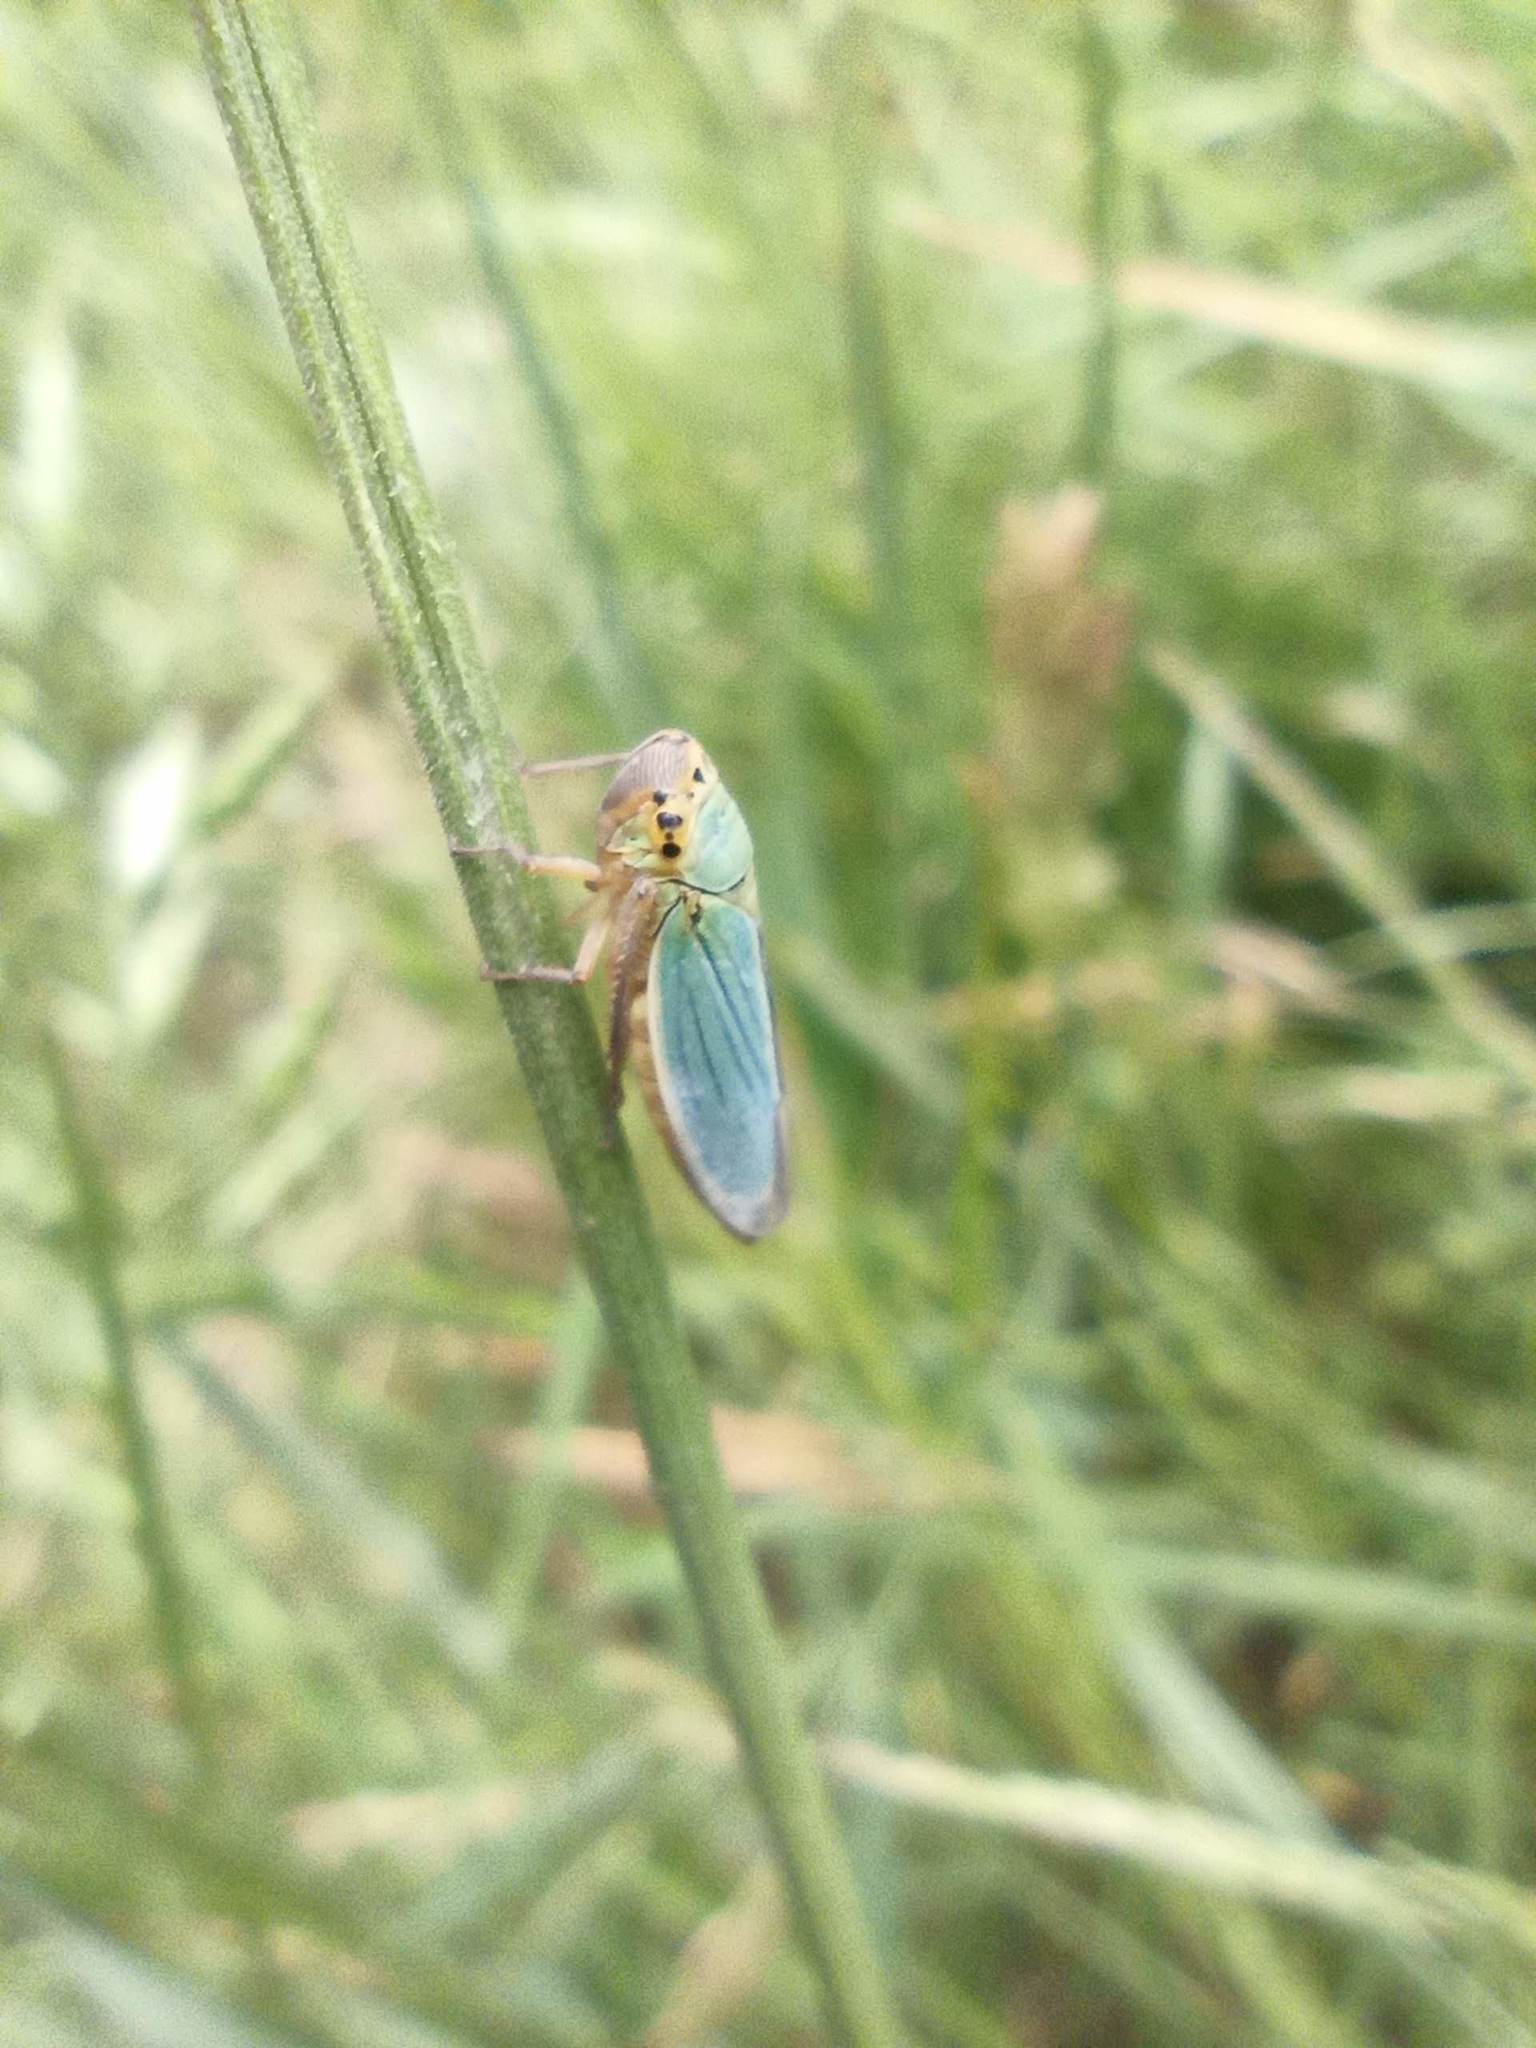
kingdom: Animalia
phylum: Arthropoda
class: Insecta
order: Hemiptera
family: Cicadellidae
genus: Cicadella
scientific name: Cicadella viridis
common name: Leafhopper
